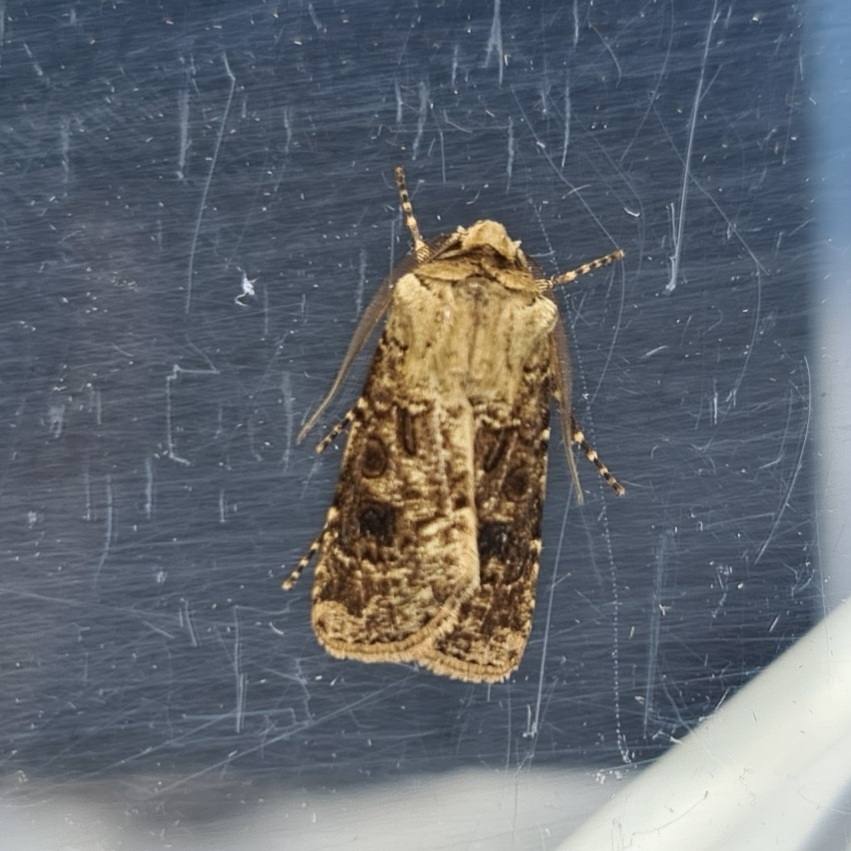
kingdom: Animalia
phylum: Arthropoda
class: Insecta
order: Lepidoptera
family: Noctuidae
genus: Agrotis
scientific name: Agrotis clavis
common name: Heart and club
